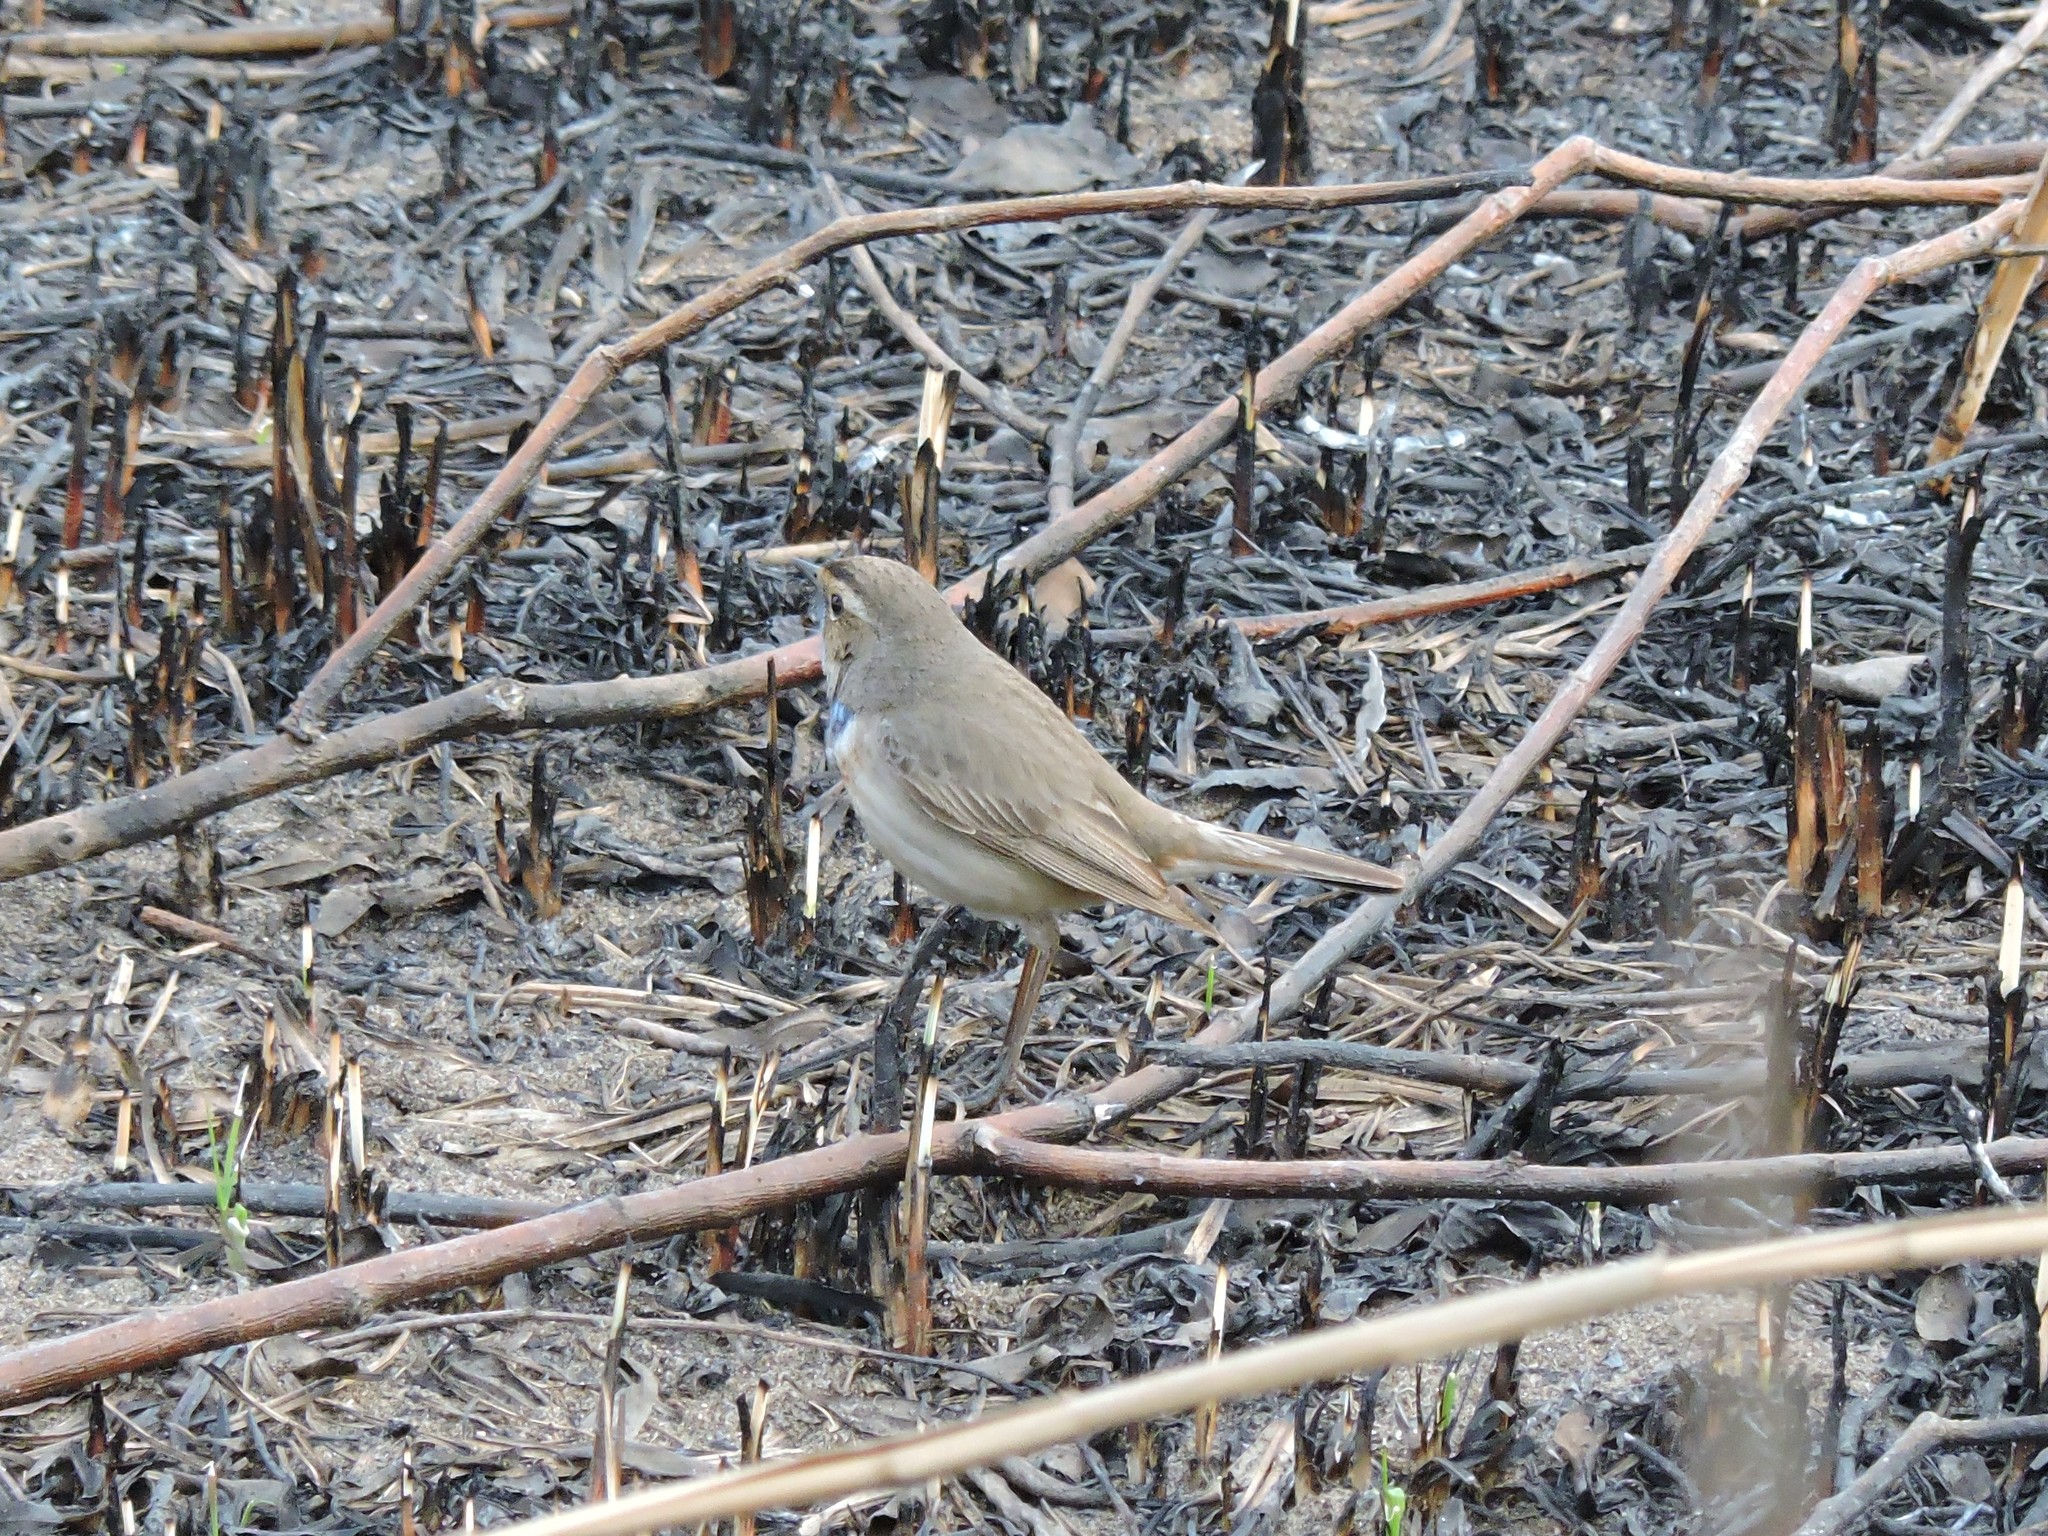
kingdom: Animalia
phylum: Chordata
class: Aves
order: Passeriformes
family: Muscicapidae
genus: Luscinia
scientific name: Luscinia svecica
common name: Bluethroat
